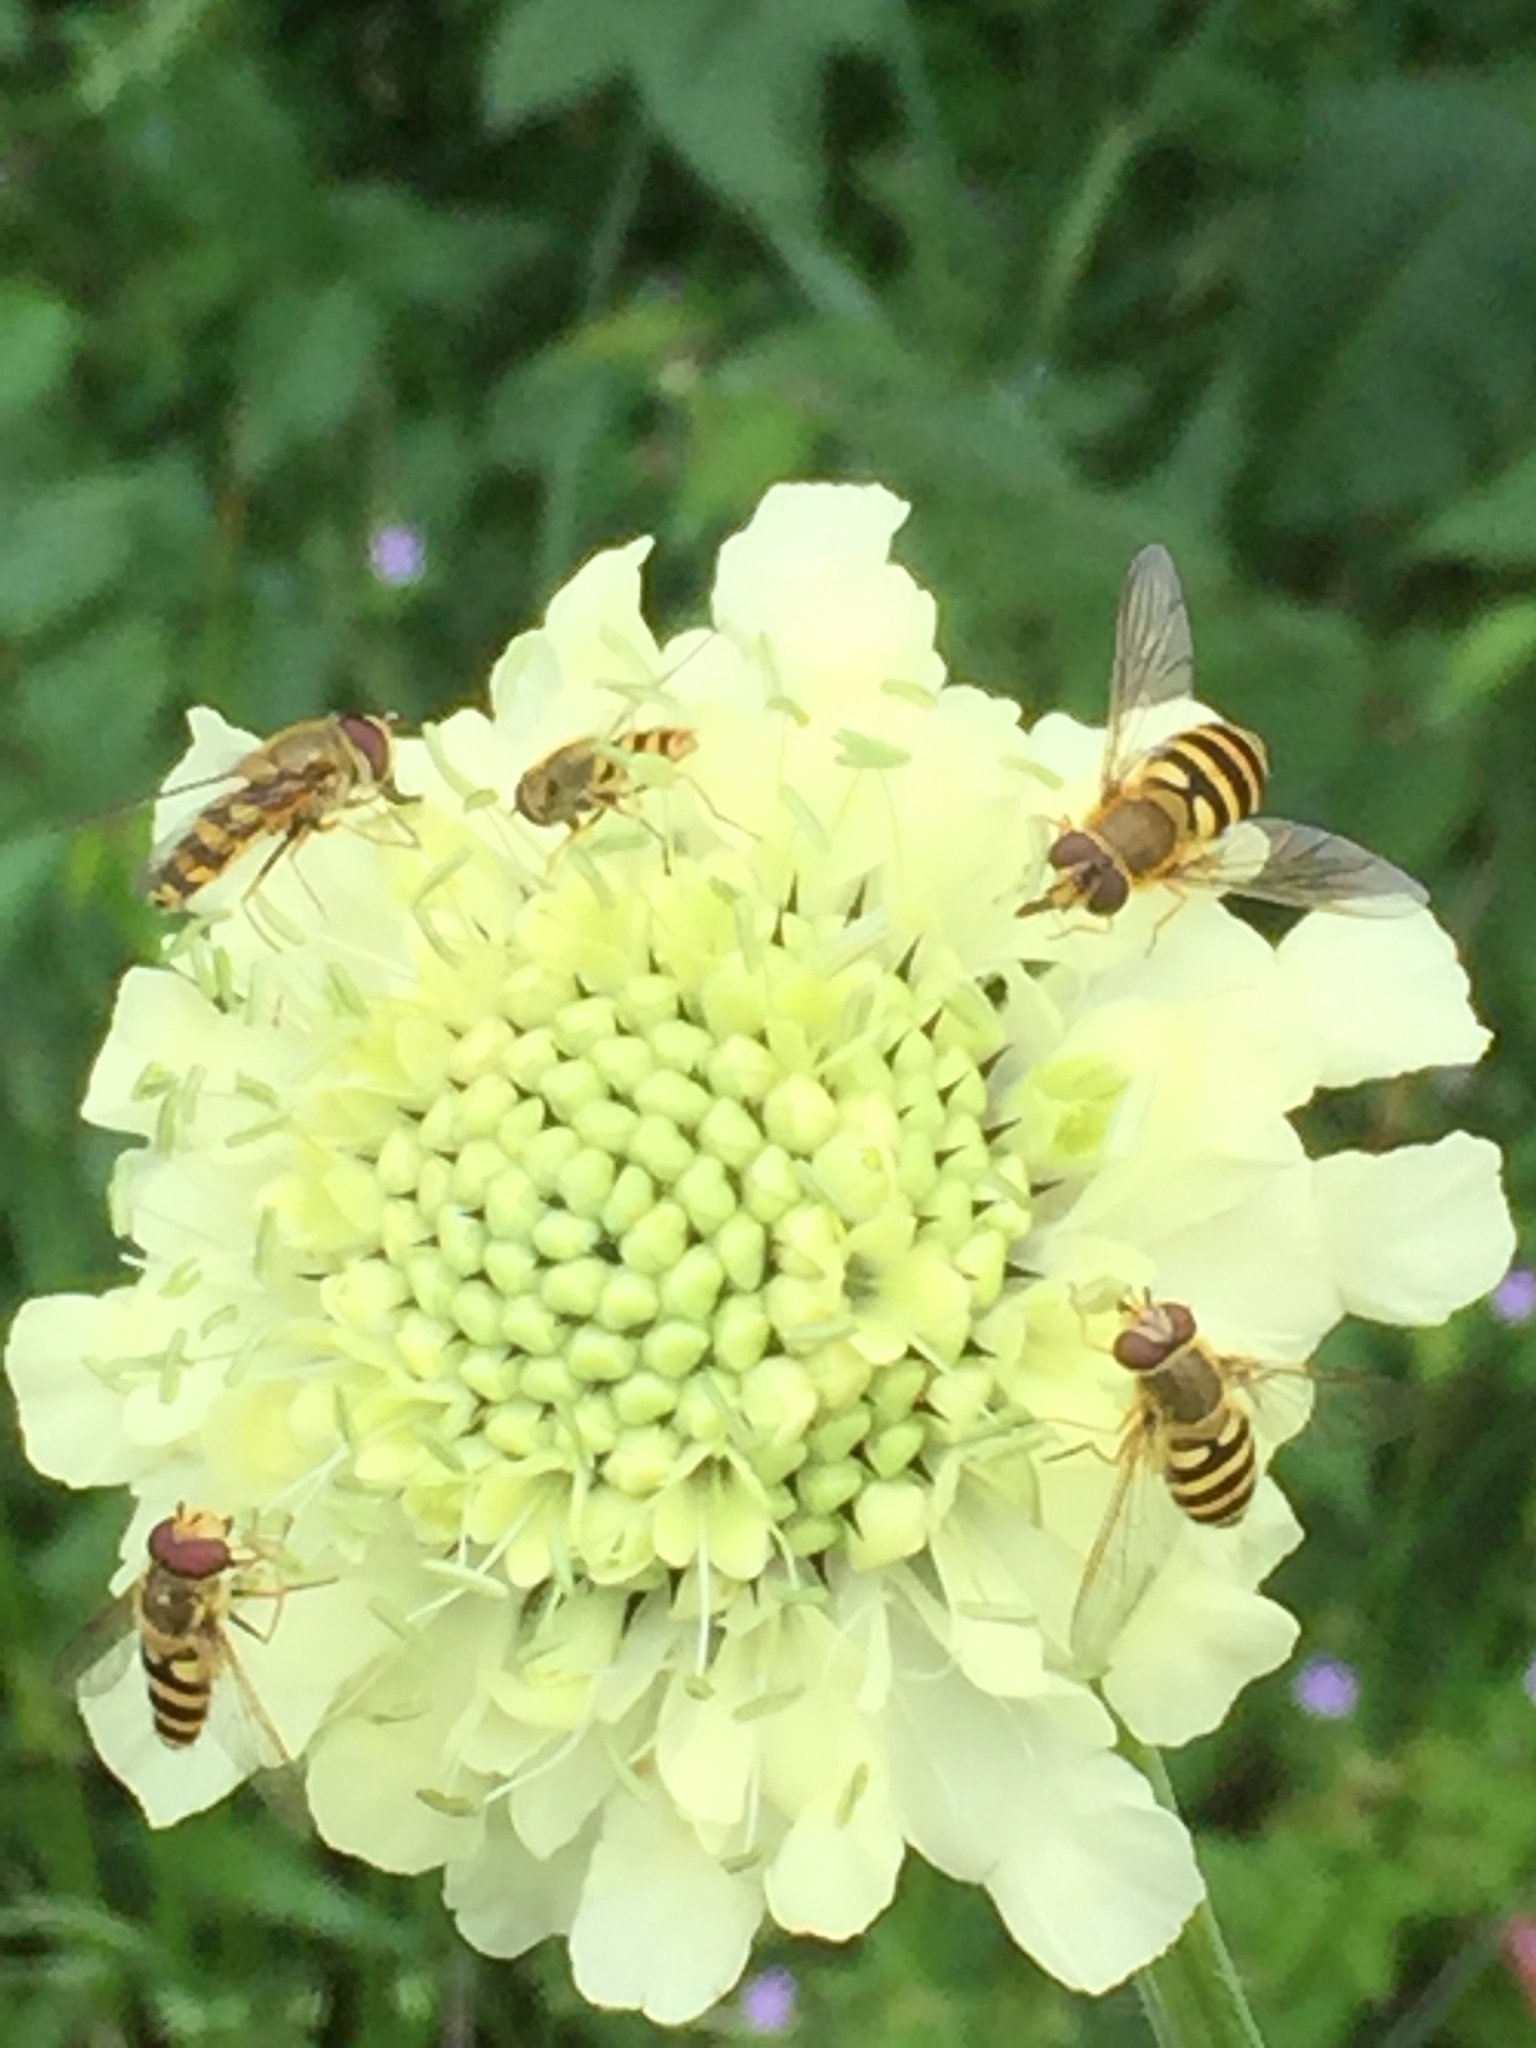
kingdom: Plantae
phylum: Tracheophyta
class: Magnoliopsida
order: Dipsacales
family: Caprifoliaceae
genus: Scabiosa
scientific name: Scabiosa ochroleuca
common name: Cream pincushions
